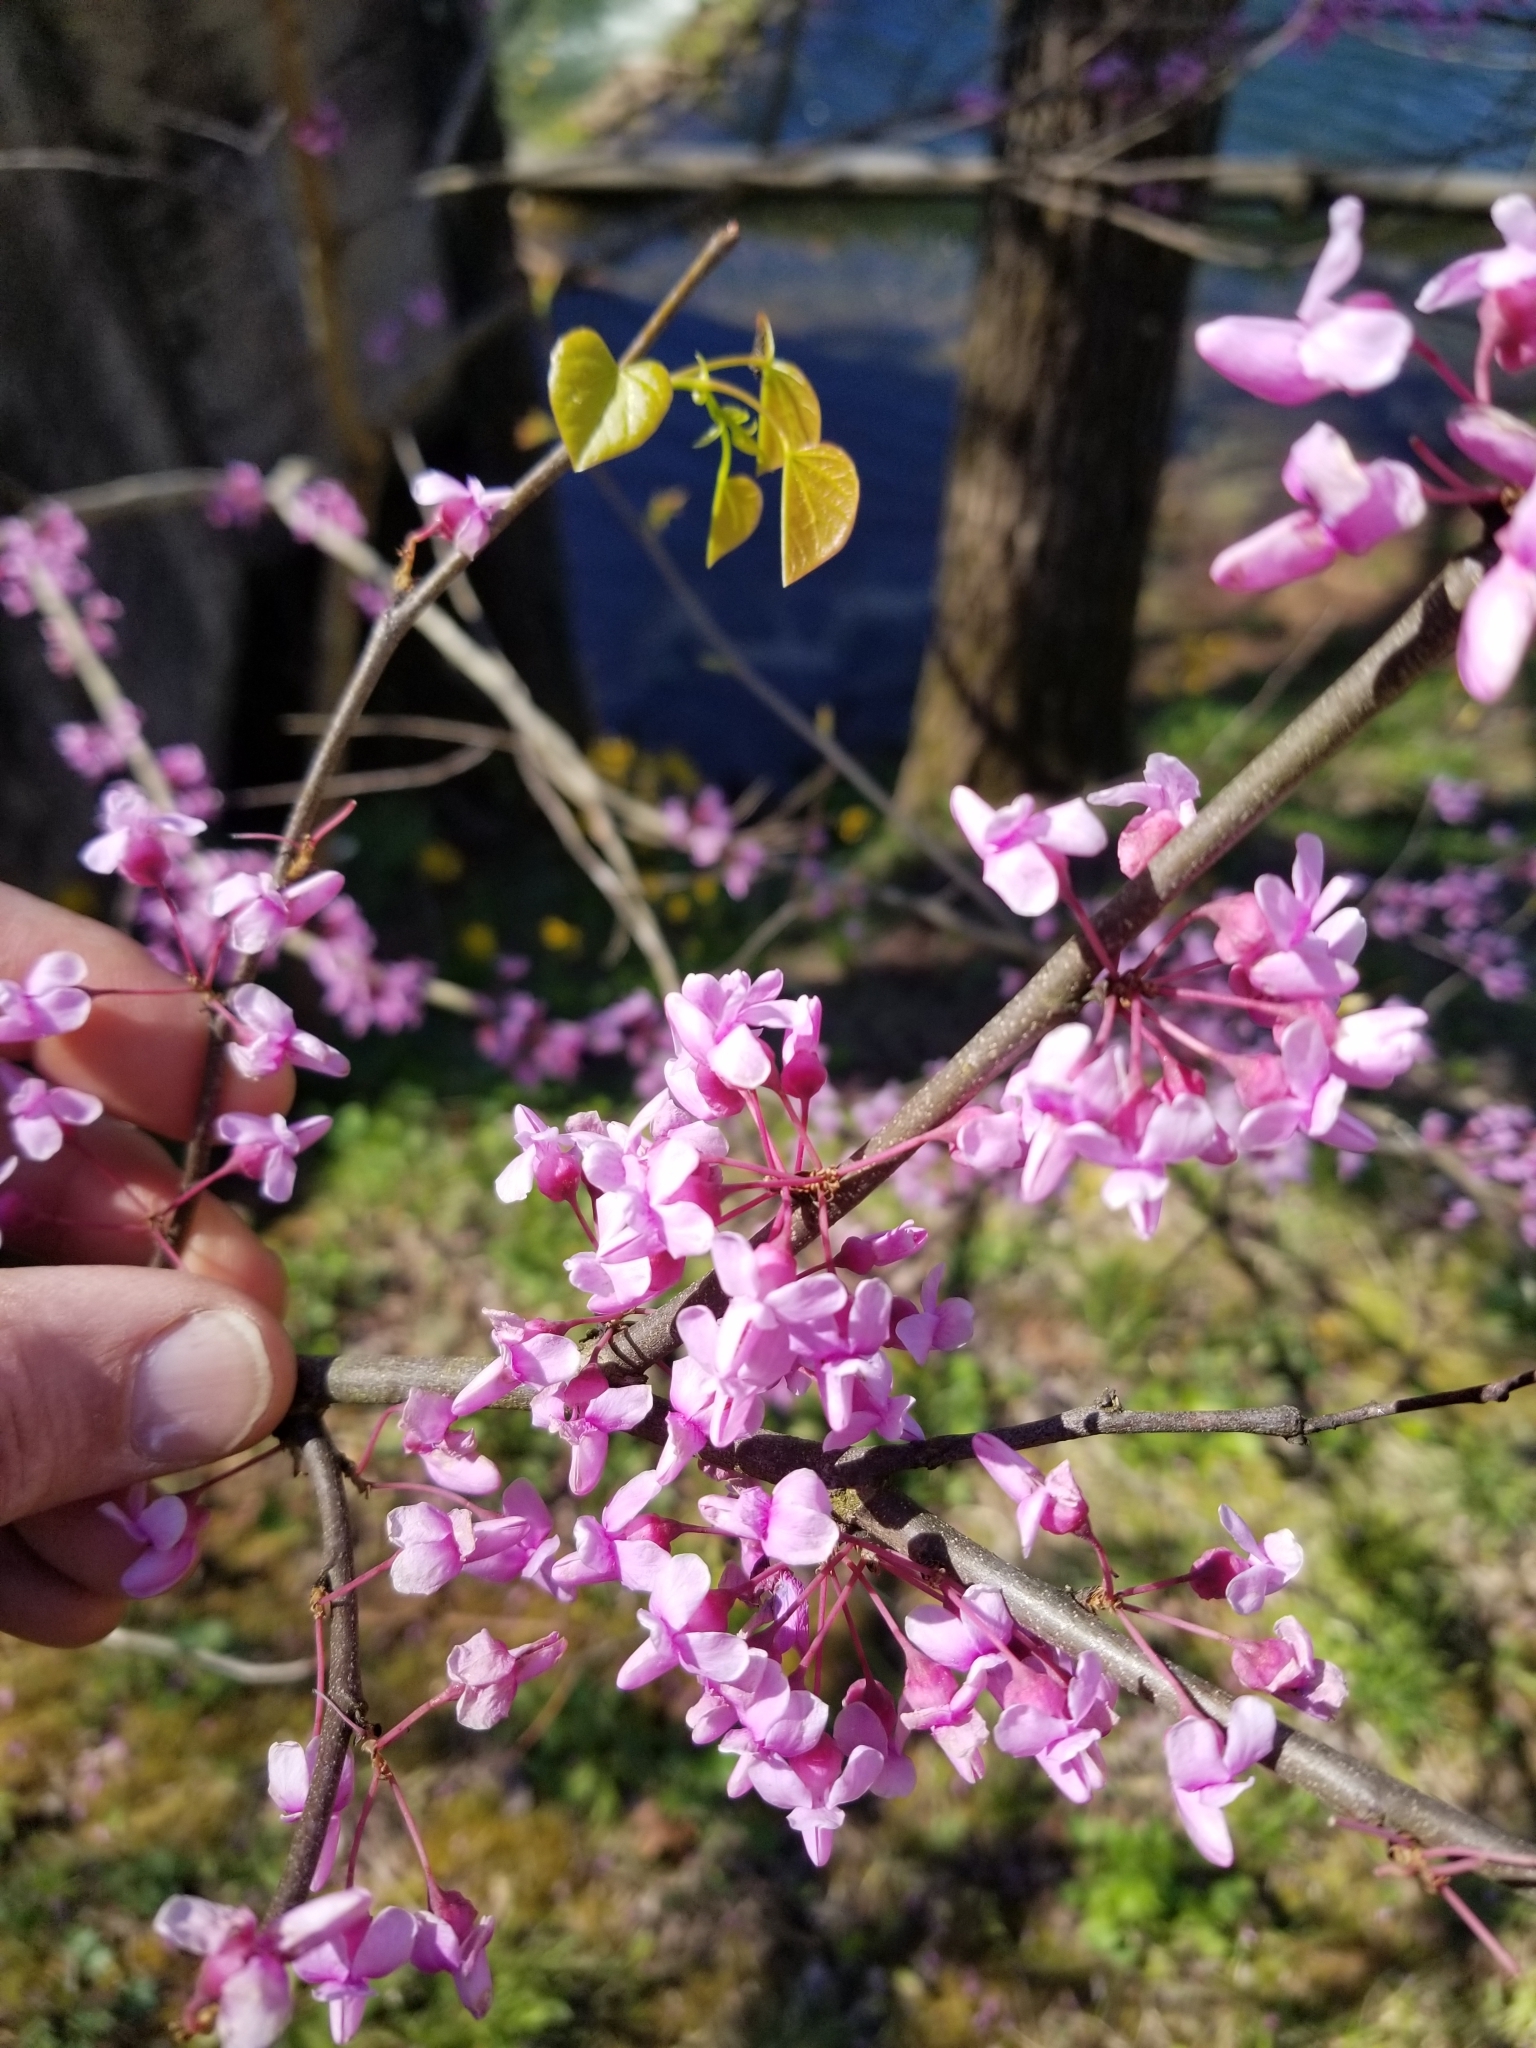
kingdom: Plantae
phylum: Tracheophyta
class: Magnoliopsida
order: Fabales
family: Fabaceae
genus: Cercis
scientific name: Cercis canadensis
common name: Eastern redbud
